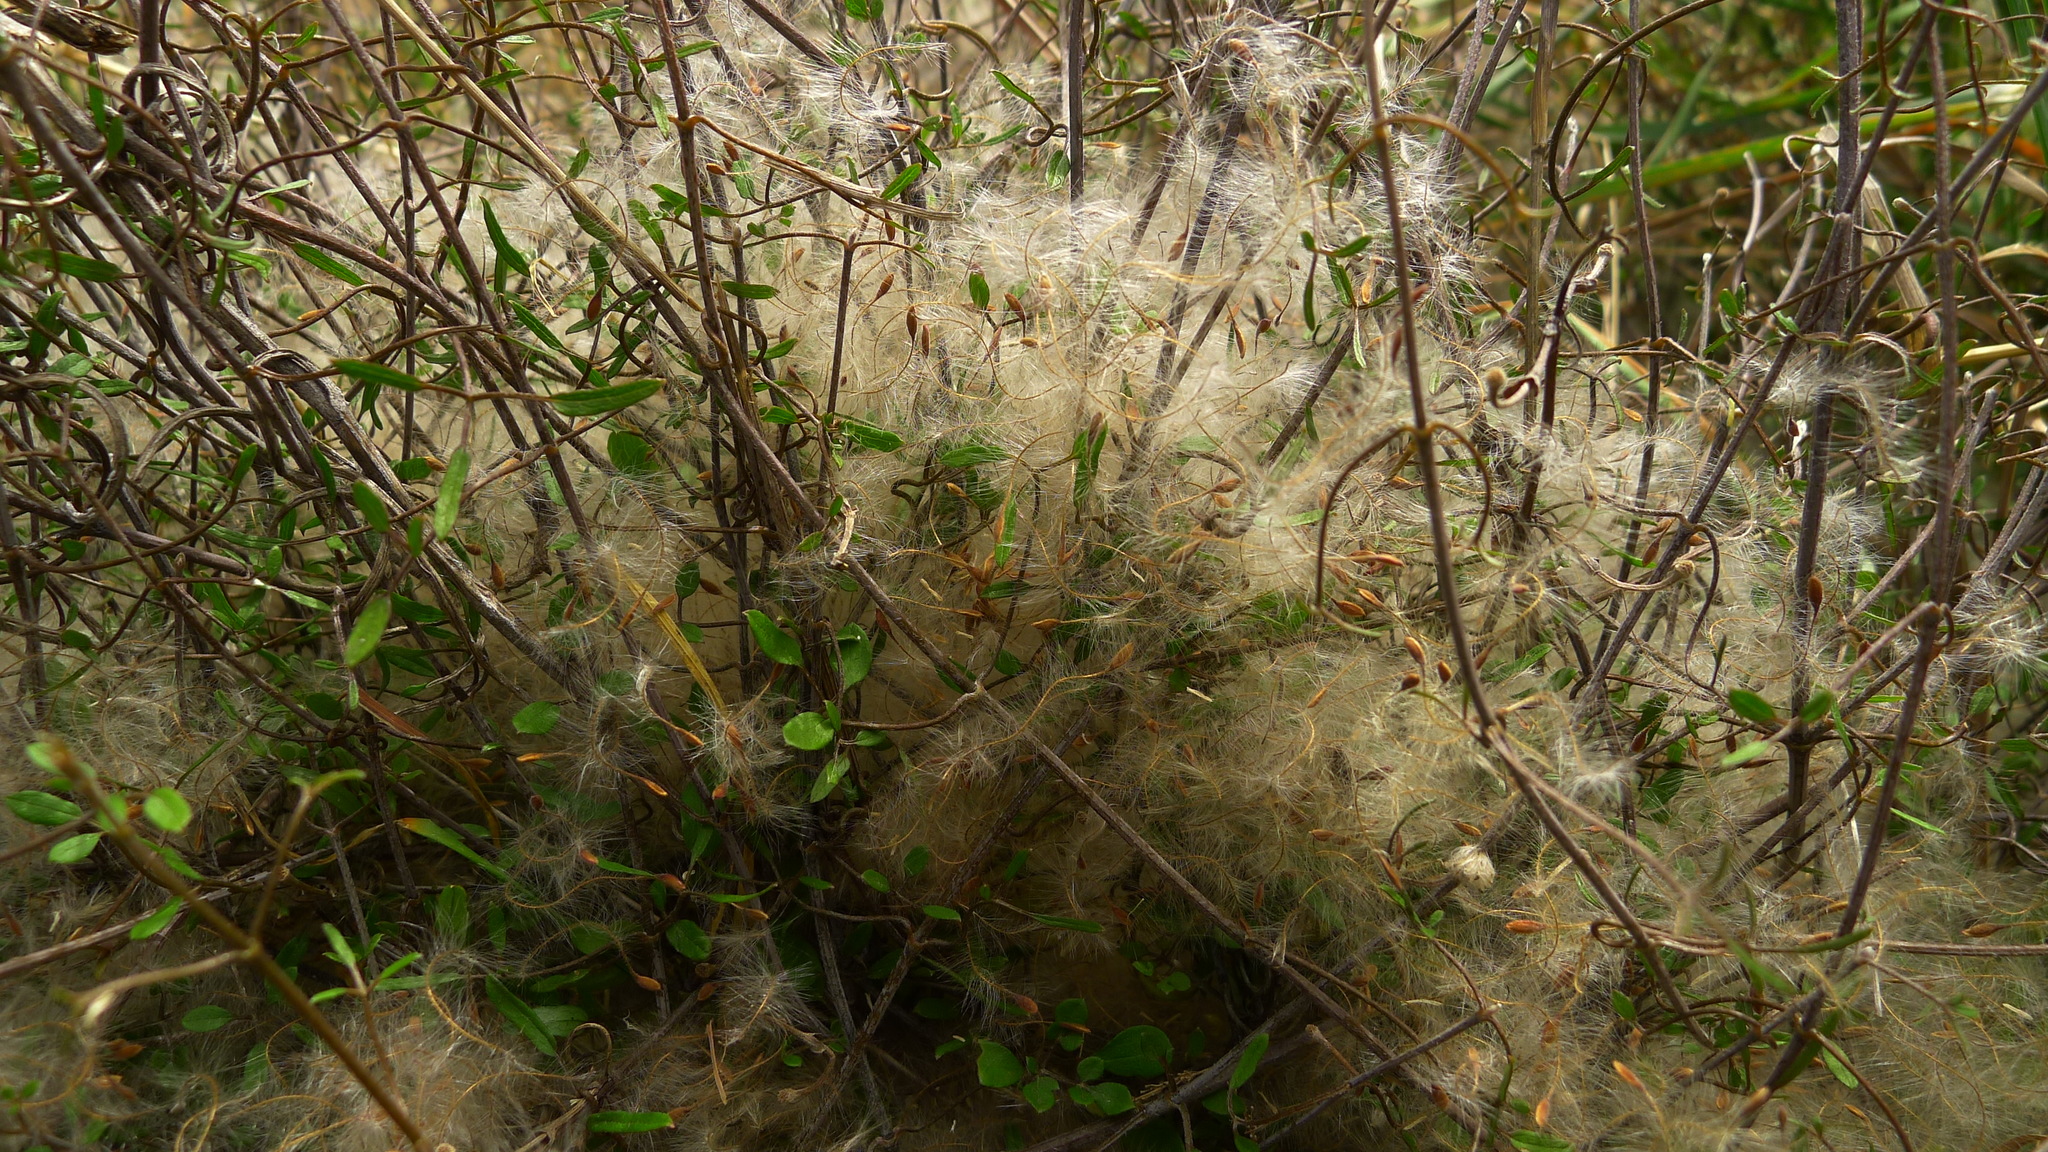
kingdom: Plantae
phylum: Tracheophyta
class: Magnoliopsida
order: Ranunculales
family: Ranunculaceae
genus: Clematis
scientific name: Clematis quadribracteolata
